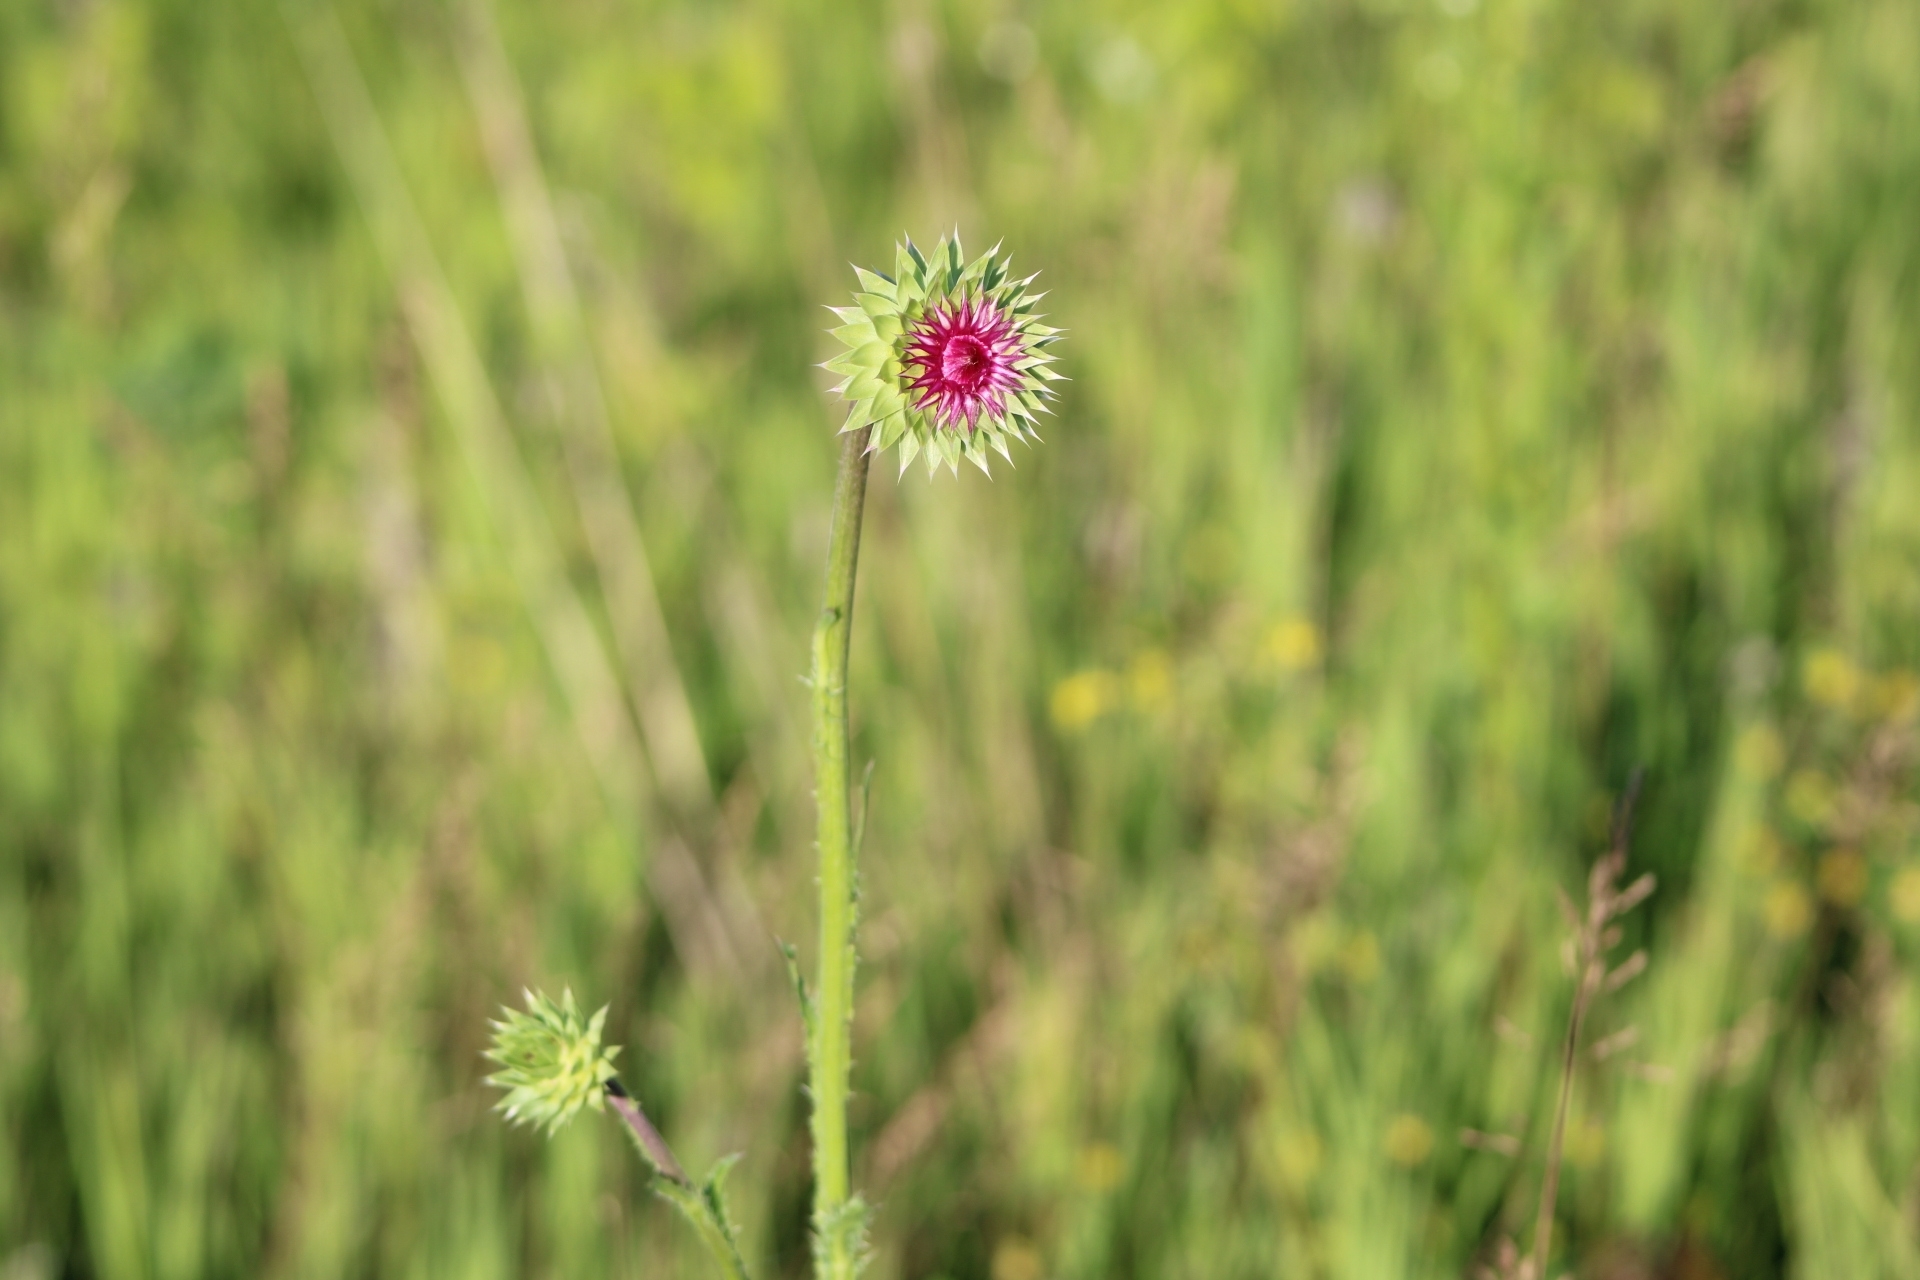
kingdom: Plantae
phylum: Tracheophyta
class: Magnoliopsida
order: Asterales
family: Asteraceae
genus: Carduus
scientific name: Carduus nutans
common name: Musk thistle
